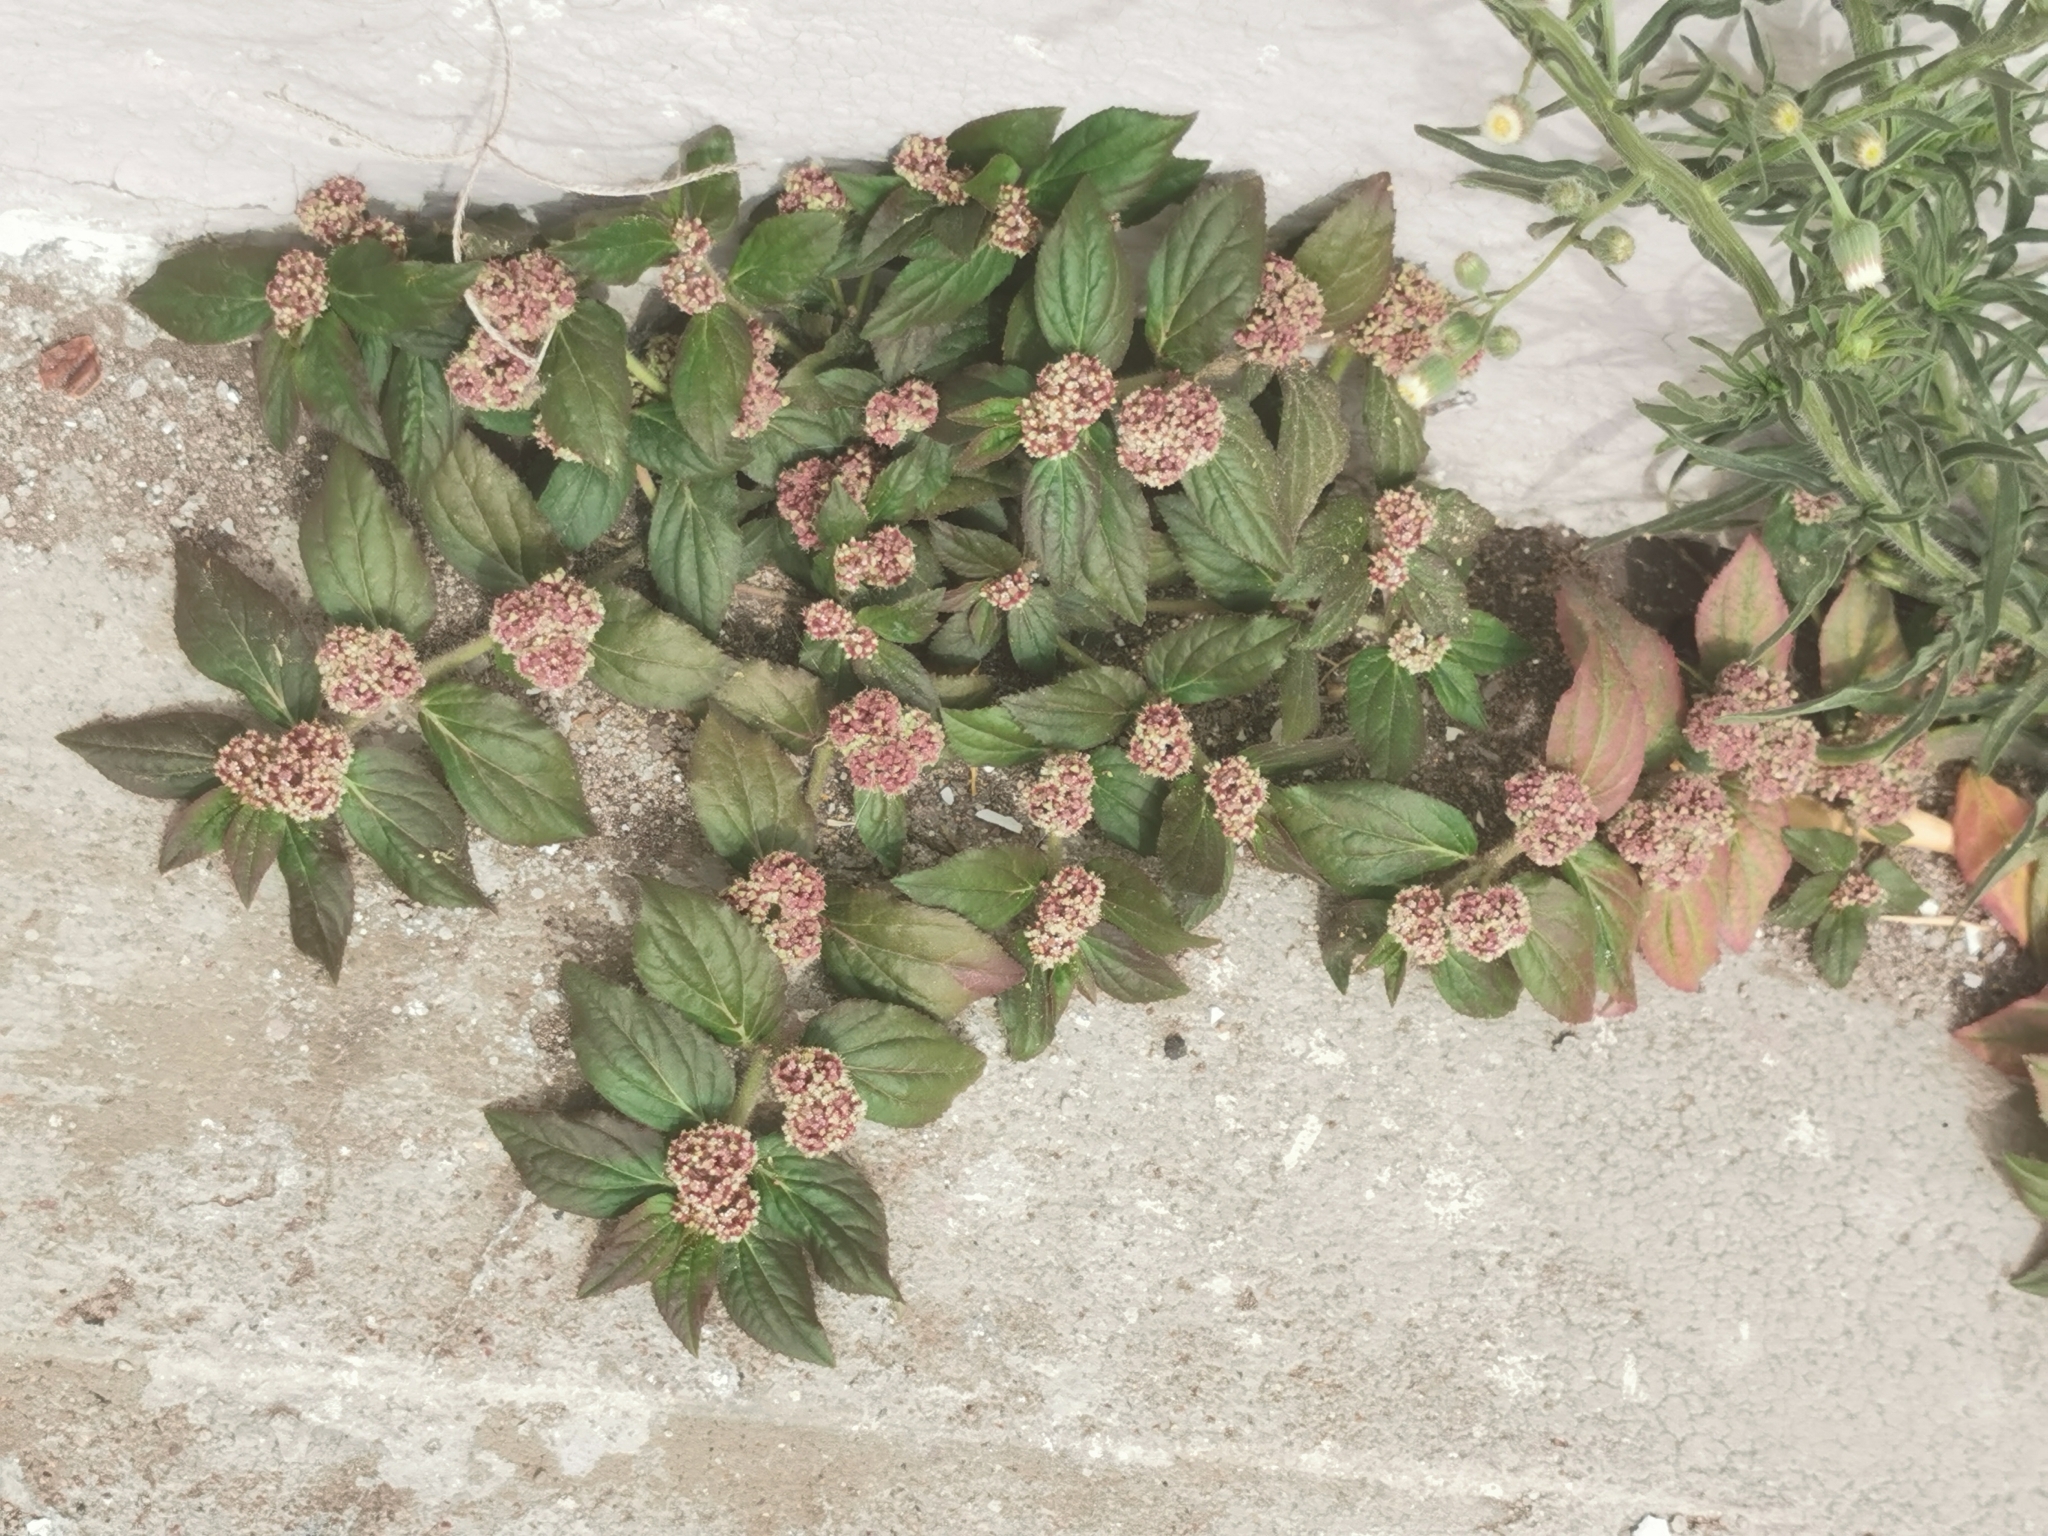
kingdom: Plantae
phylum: Tracheophyta
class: Magnoliopsida
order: Malpighiales
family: Euphorbiaceae
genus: Euphorbia
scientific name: Euphorbia hirta
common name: Pillpod sandmat
